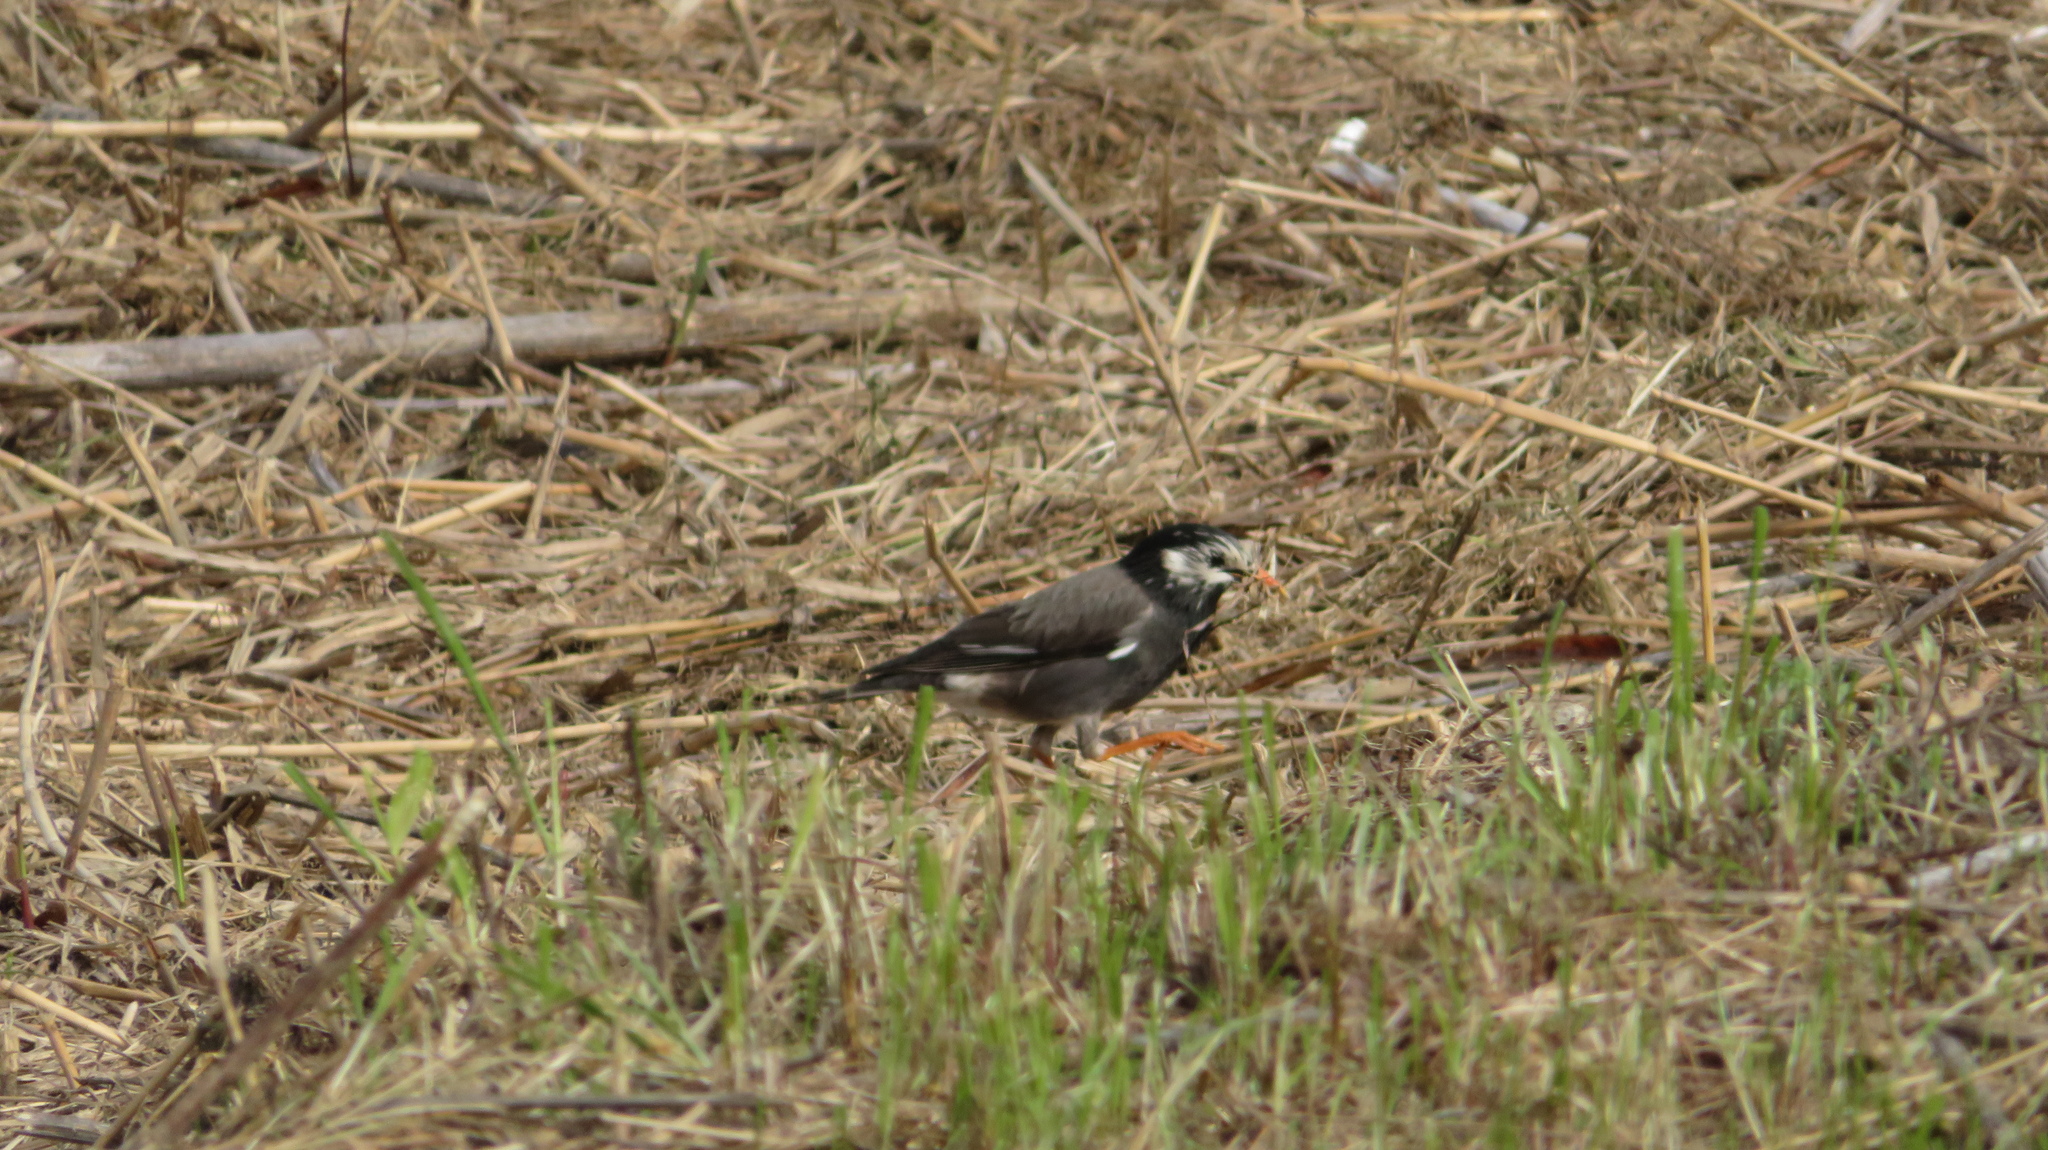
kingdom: Animalia
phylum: Chordata
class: Aves
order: Passeriformes
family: Sturnidae
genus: Spodiopsar
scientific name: Spodiopsar cineraceus
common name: White-cheeked starling
